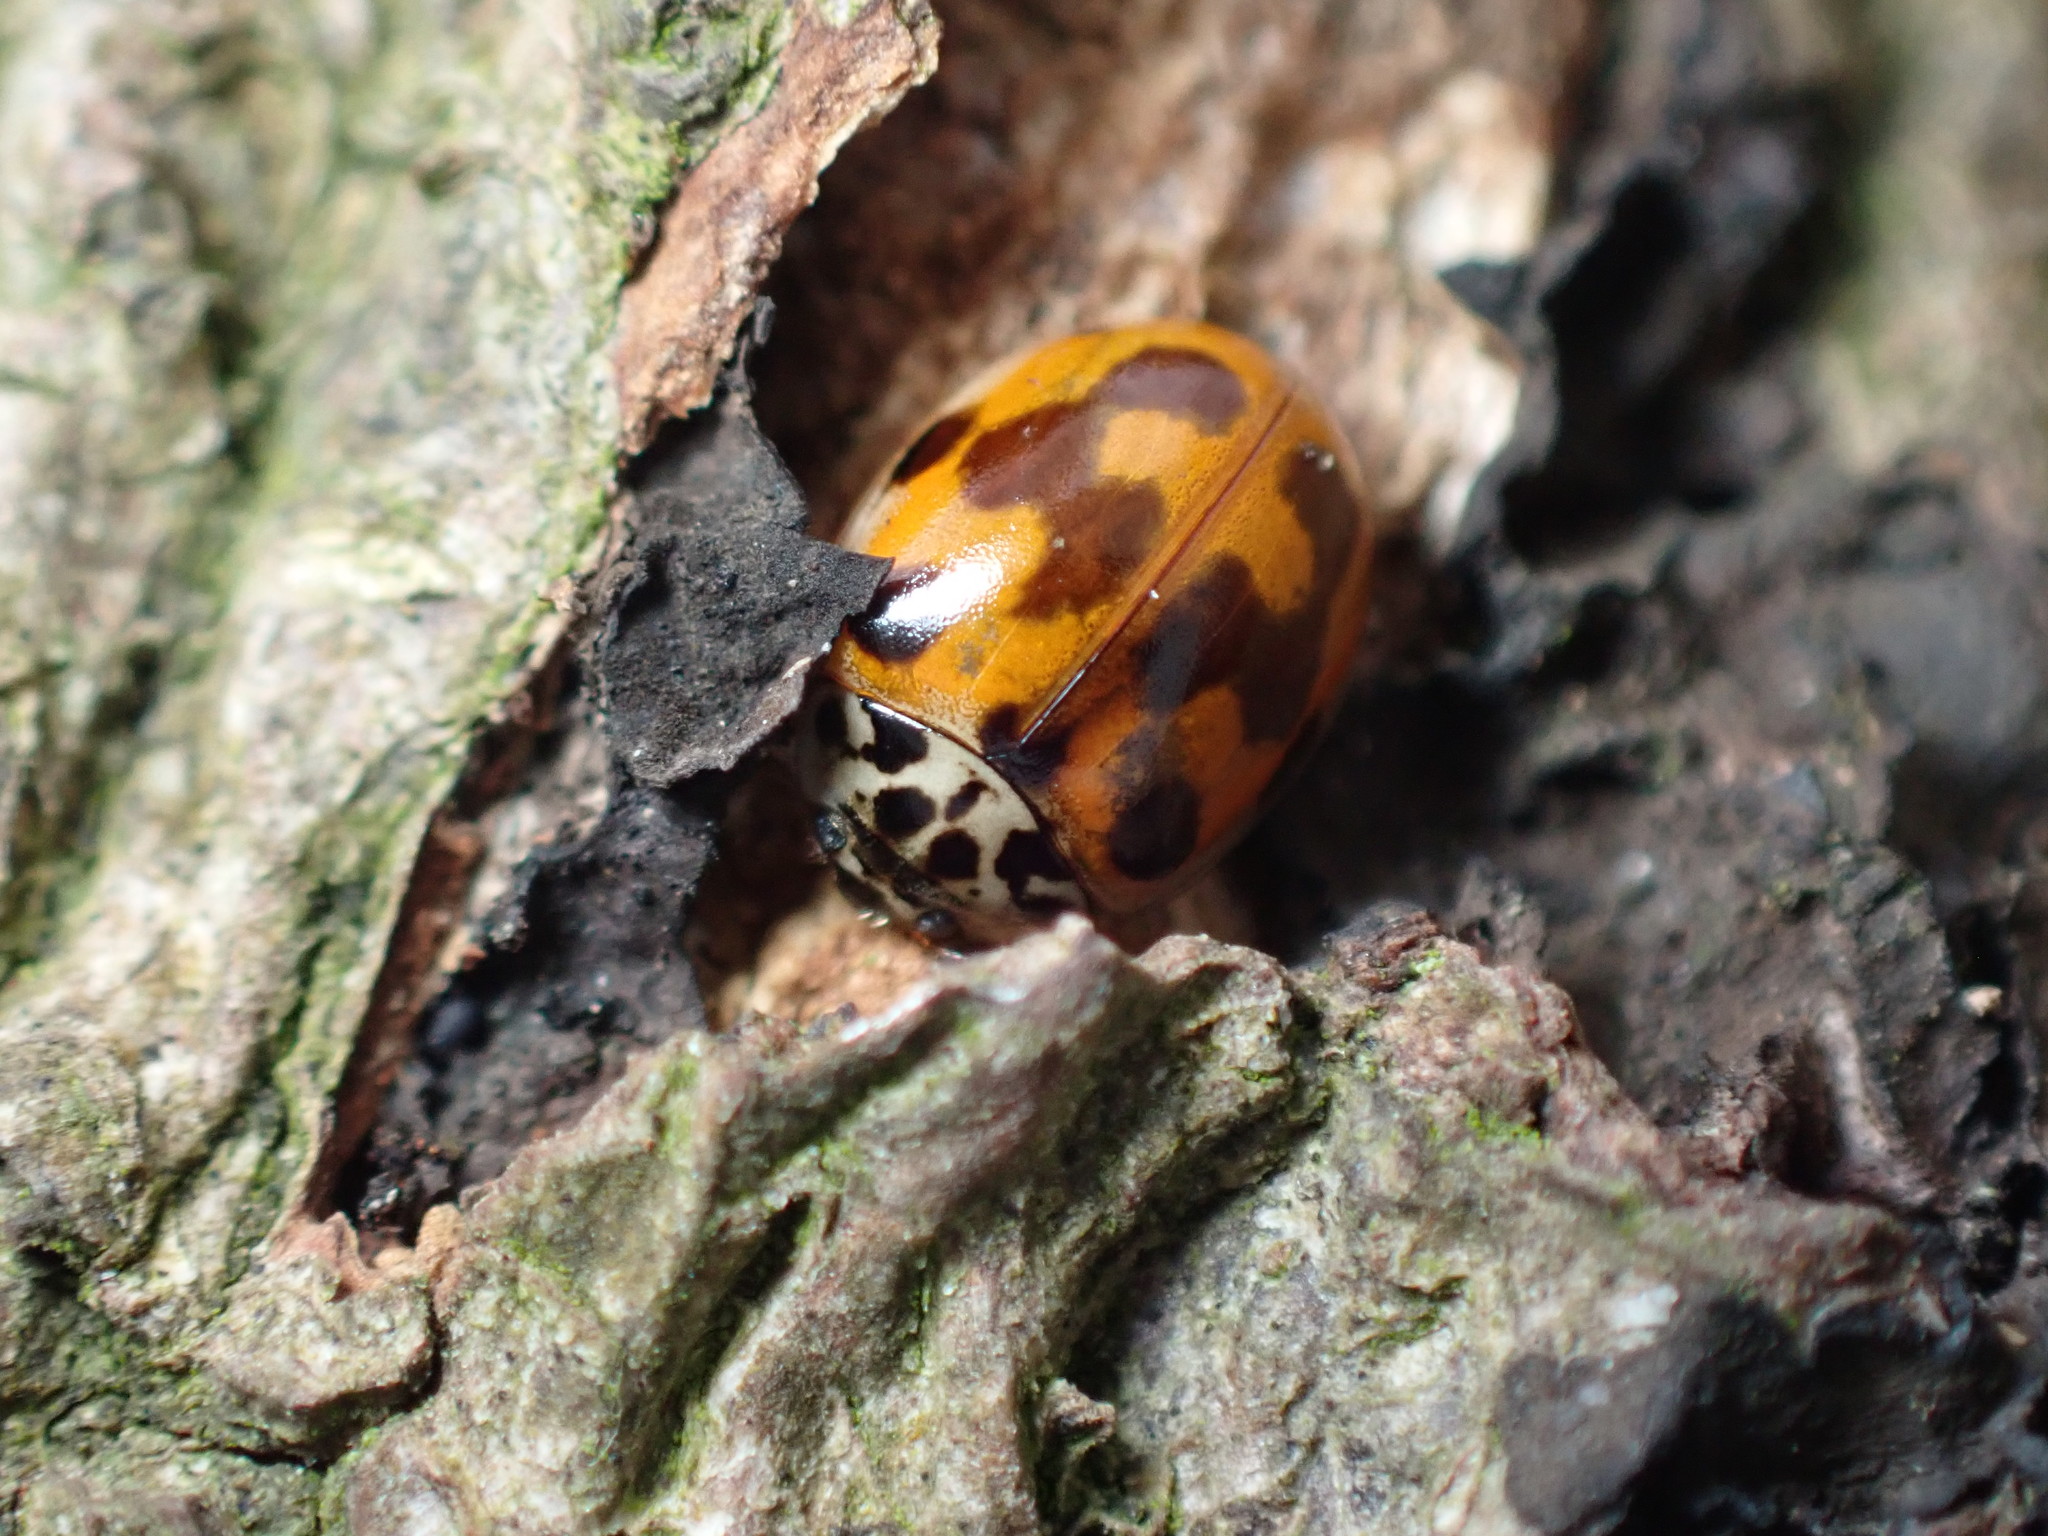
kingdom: Animalia
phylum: Arthropoda
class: Insecta
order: Coleoptera
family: Coccinellidae
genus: Adalia
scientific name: Adalia decempunctata
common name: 10-spot ladybird
